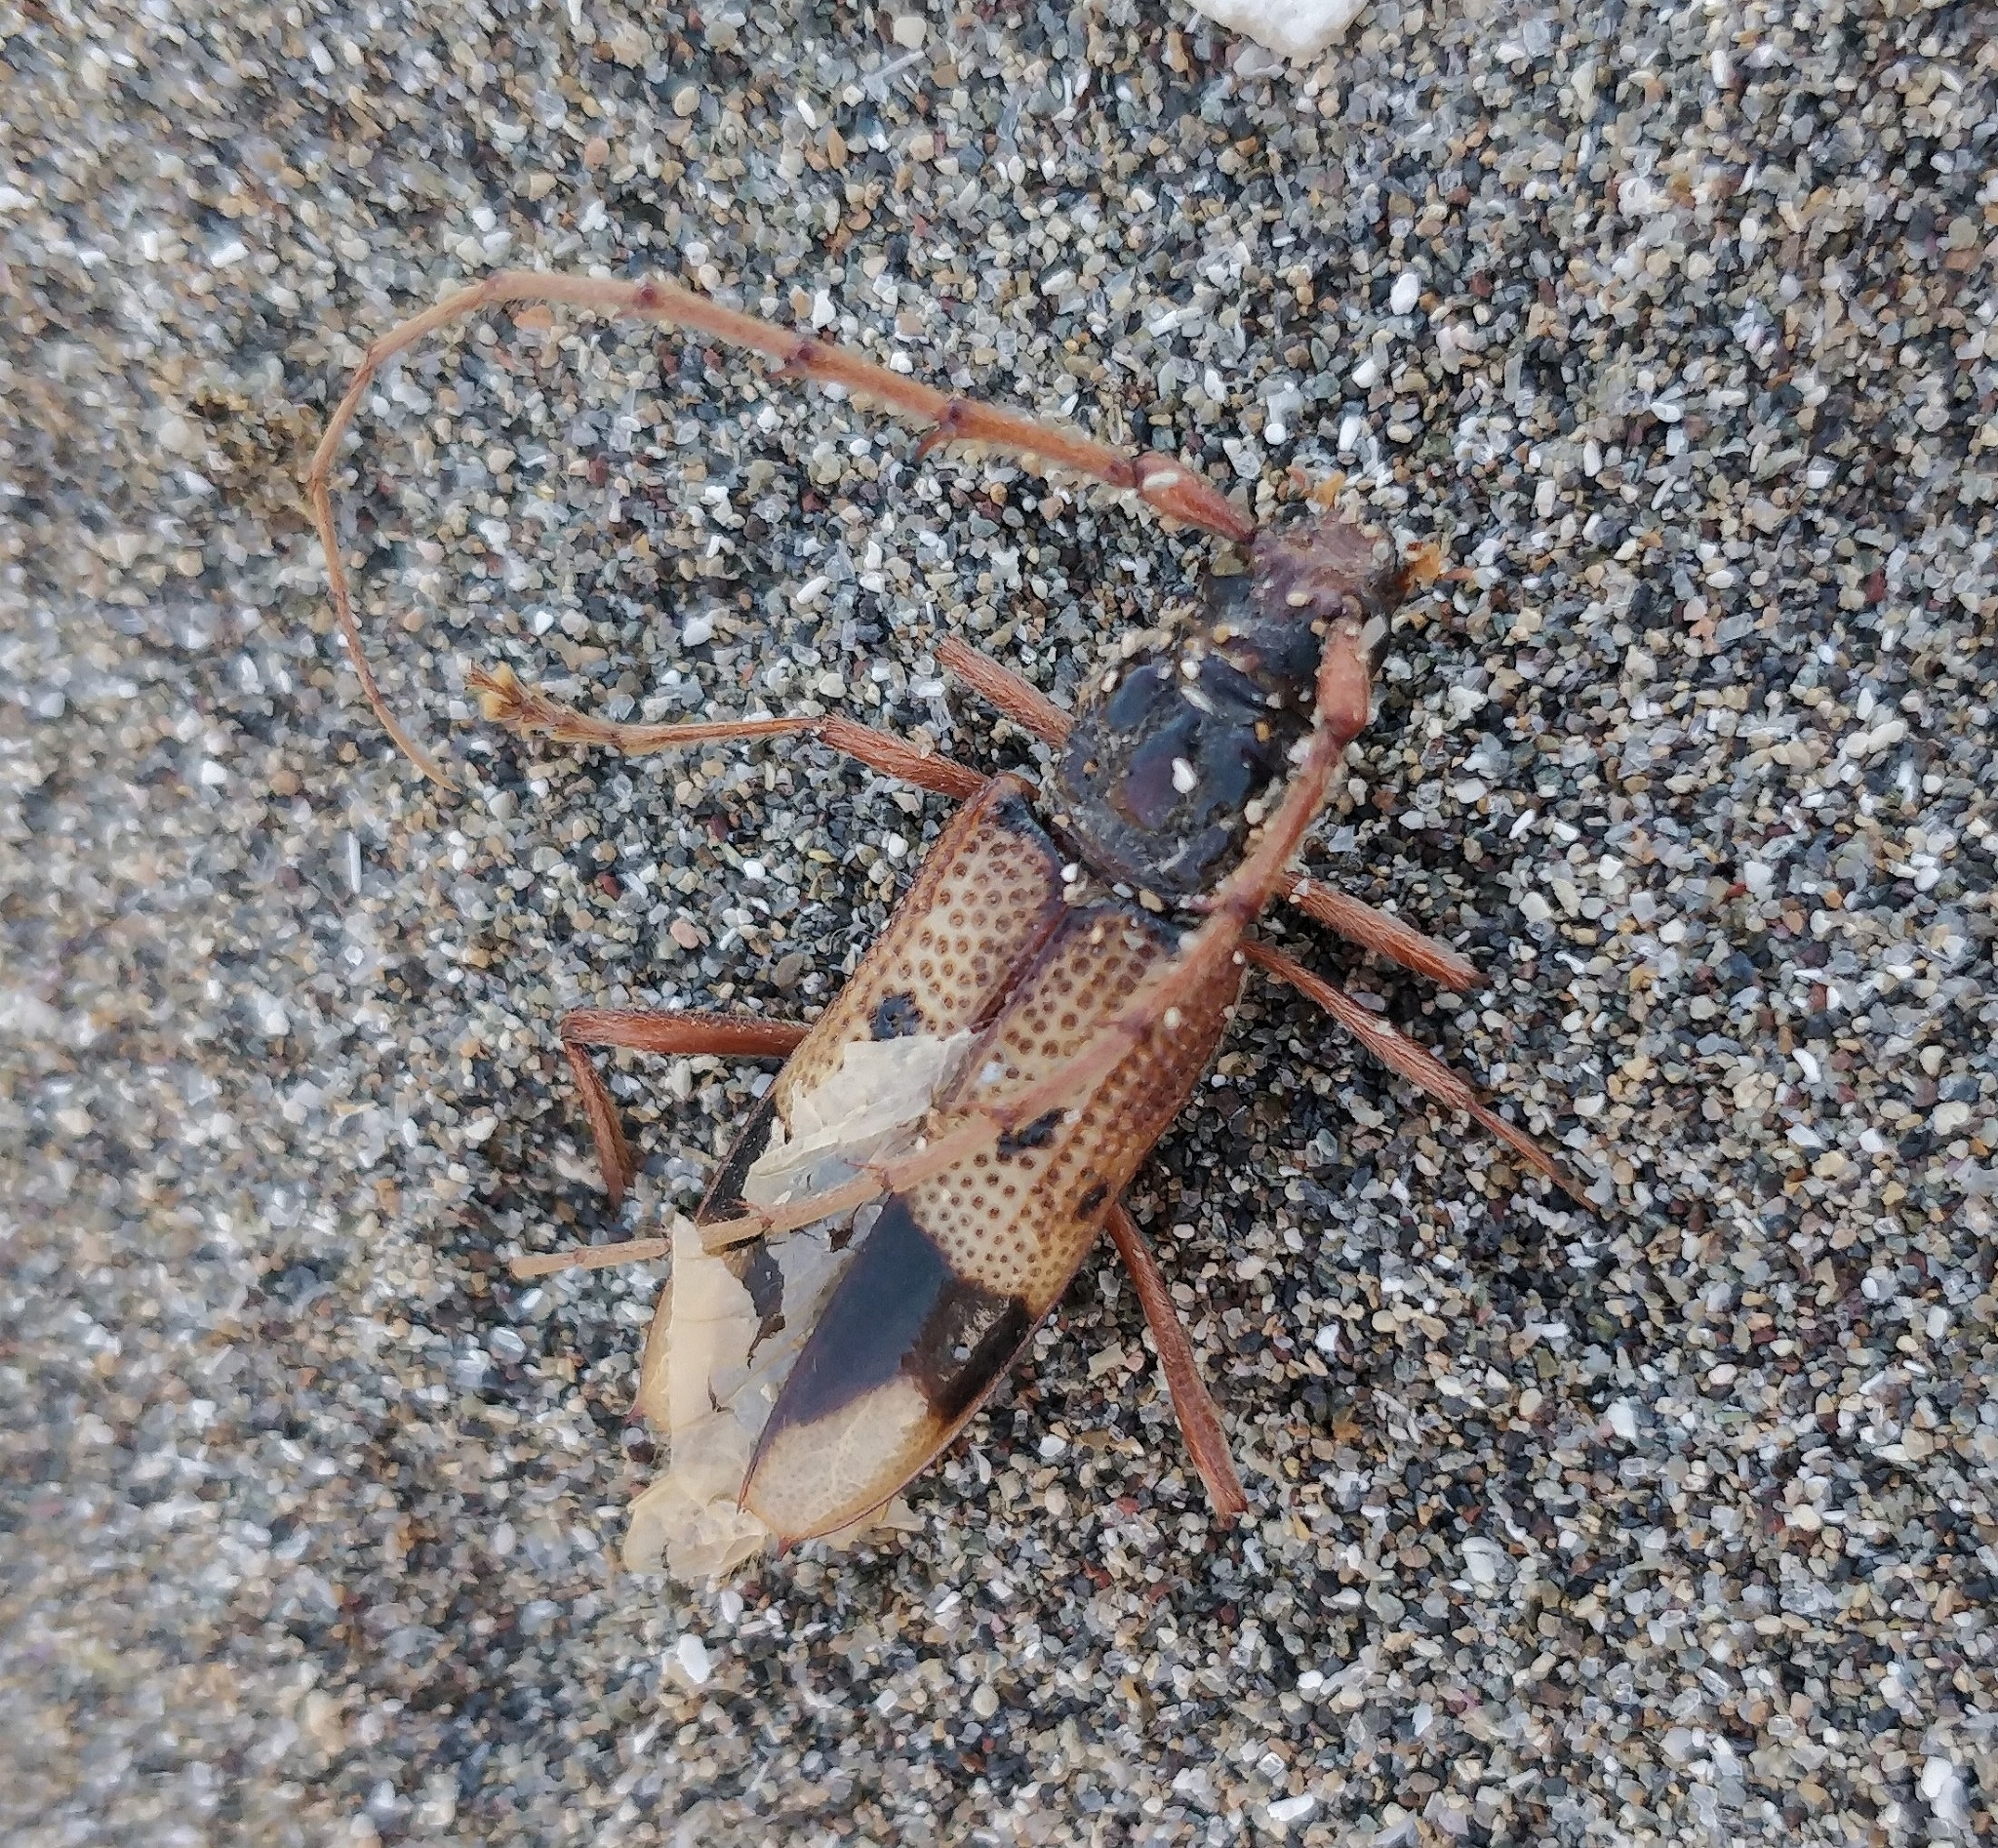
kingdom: Animalia
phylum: Arthropoda
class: Insecta
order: Coleoptera
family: Cerambycidae
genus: Phoracantha
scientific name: Phoracantha recurva
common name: Eucalyptus longhorned borer
